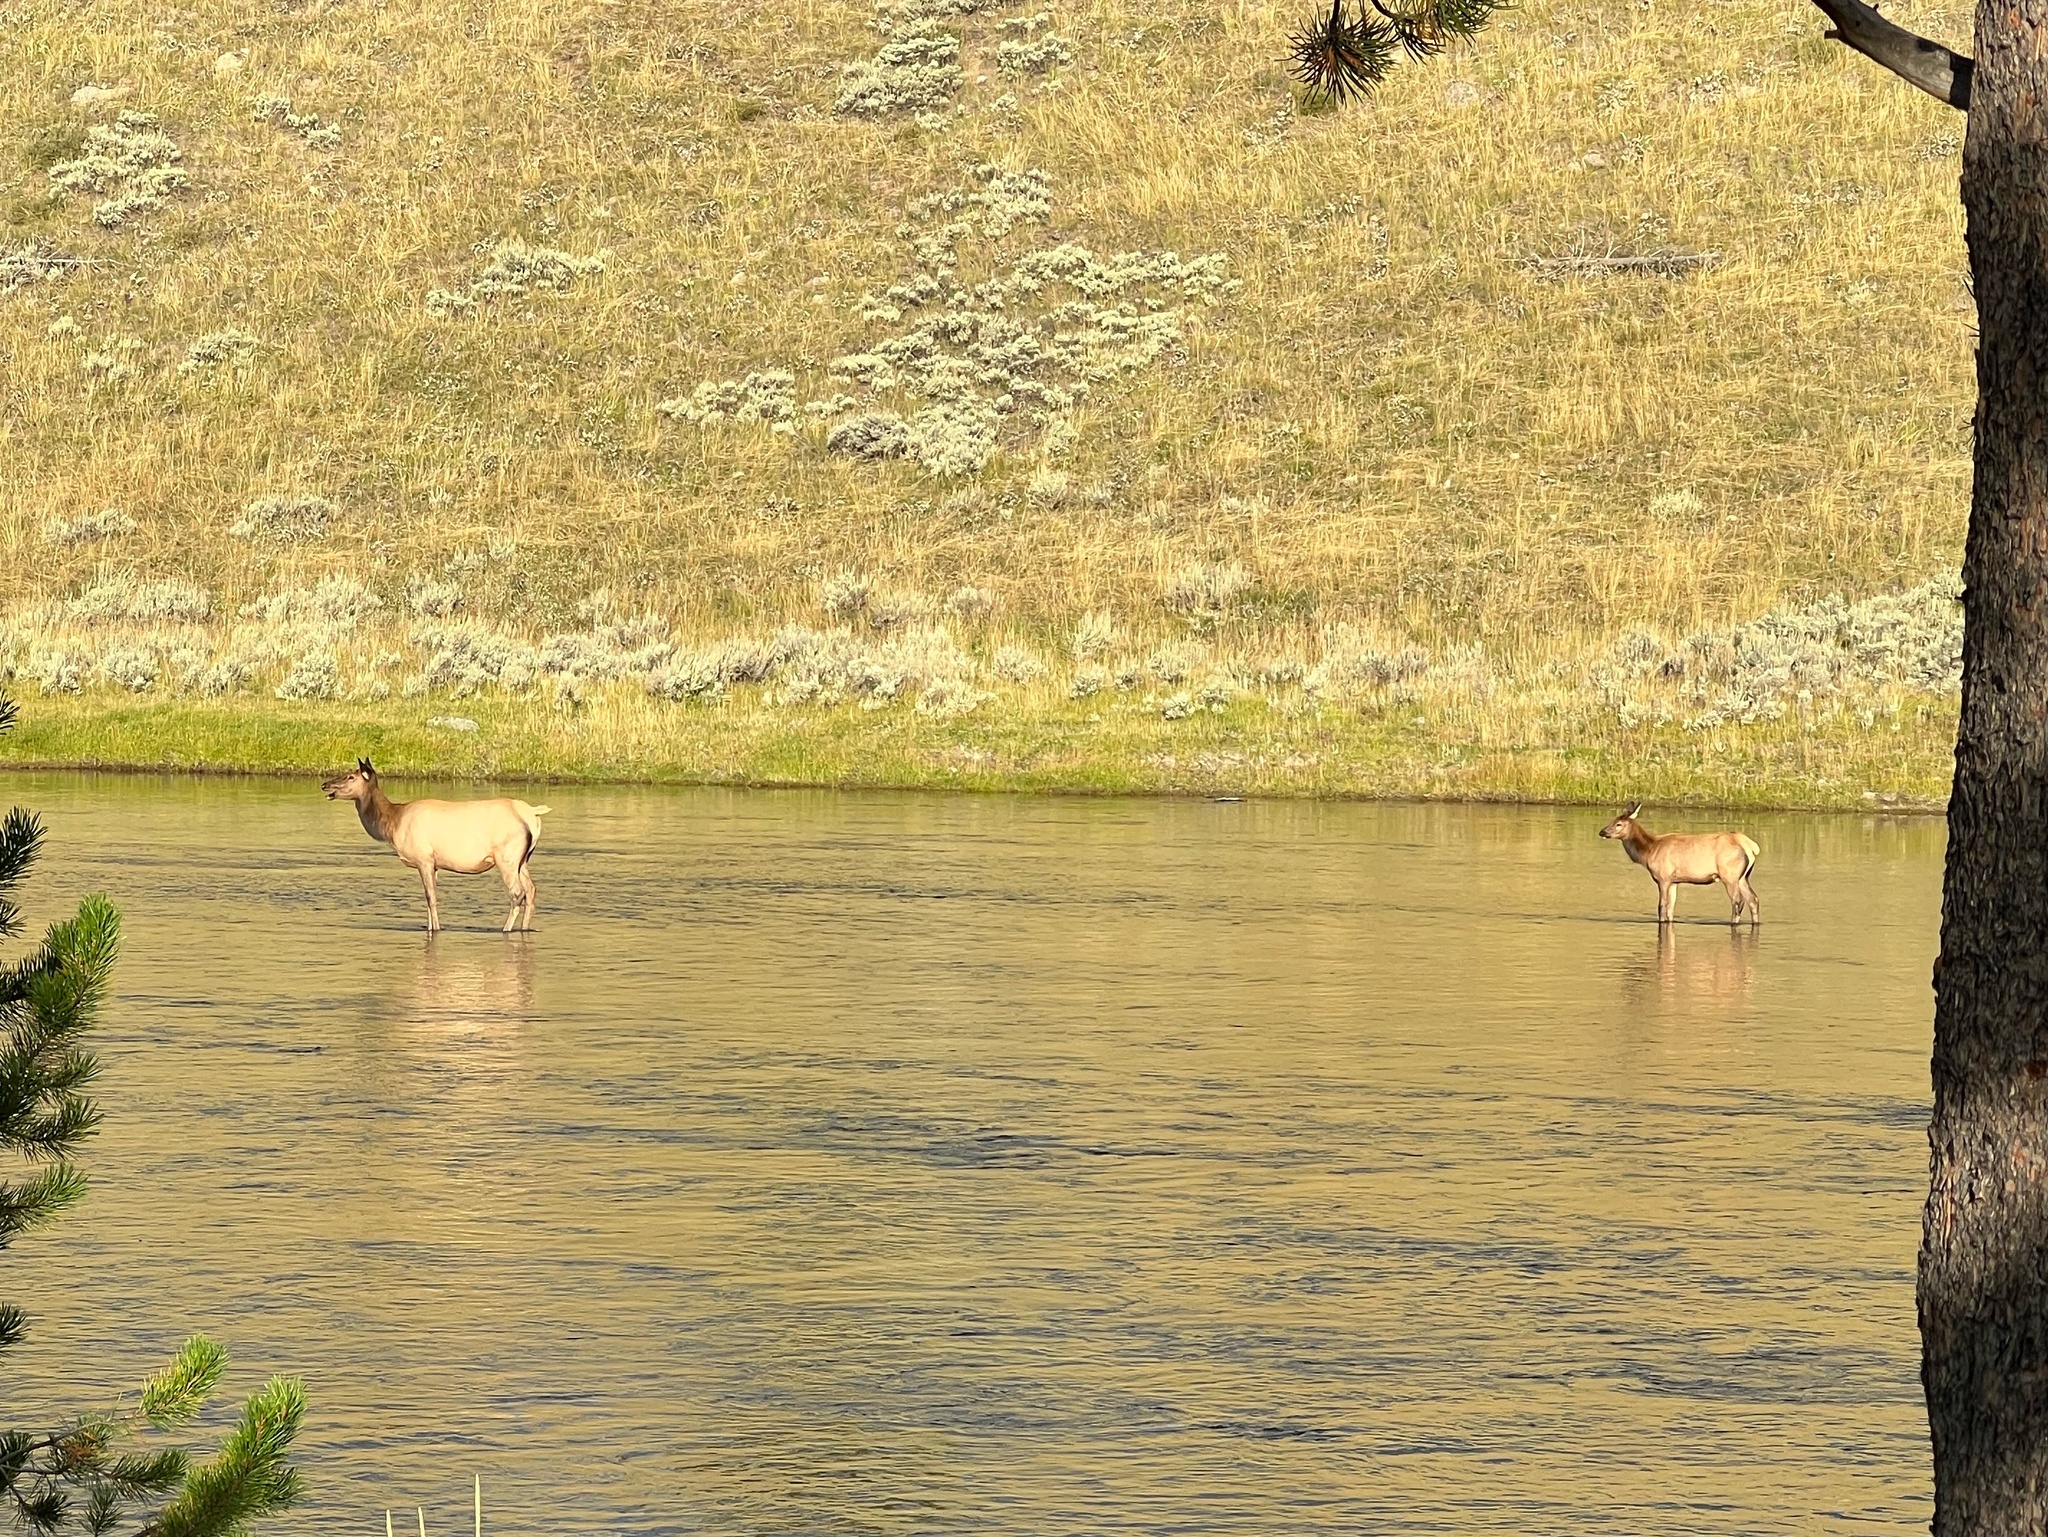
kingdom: Animalia
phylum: Chordata
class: Mammalia
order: Artiodactyla
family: Cervidae
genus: Cervus
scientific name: Cervus elaphus
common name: Red deer
